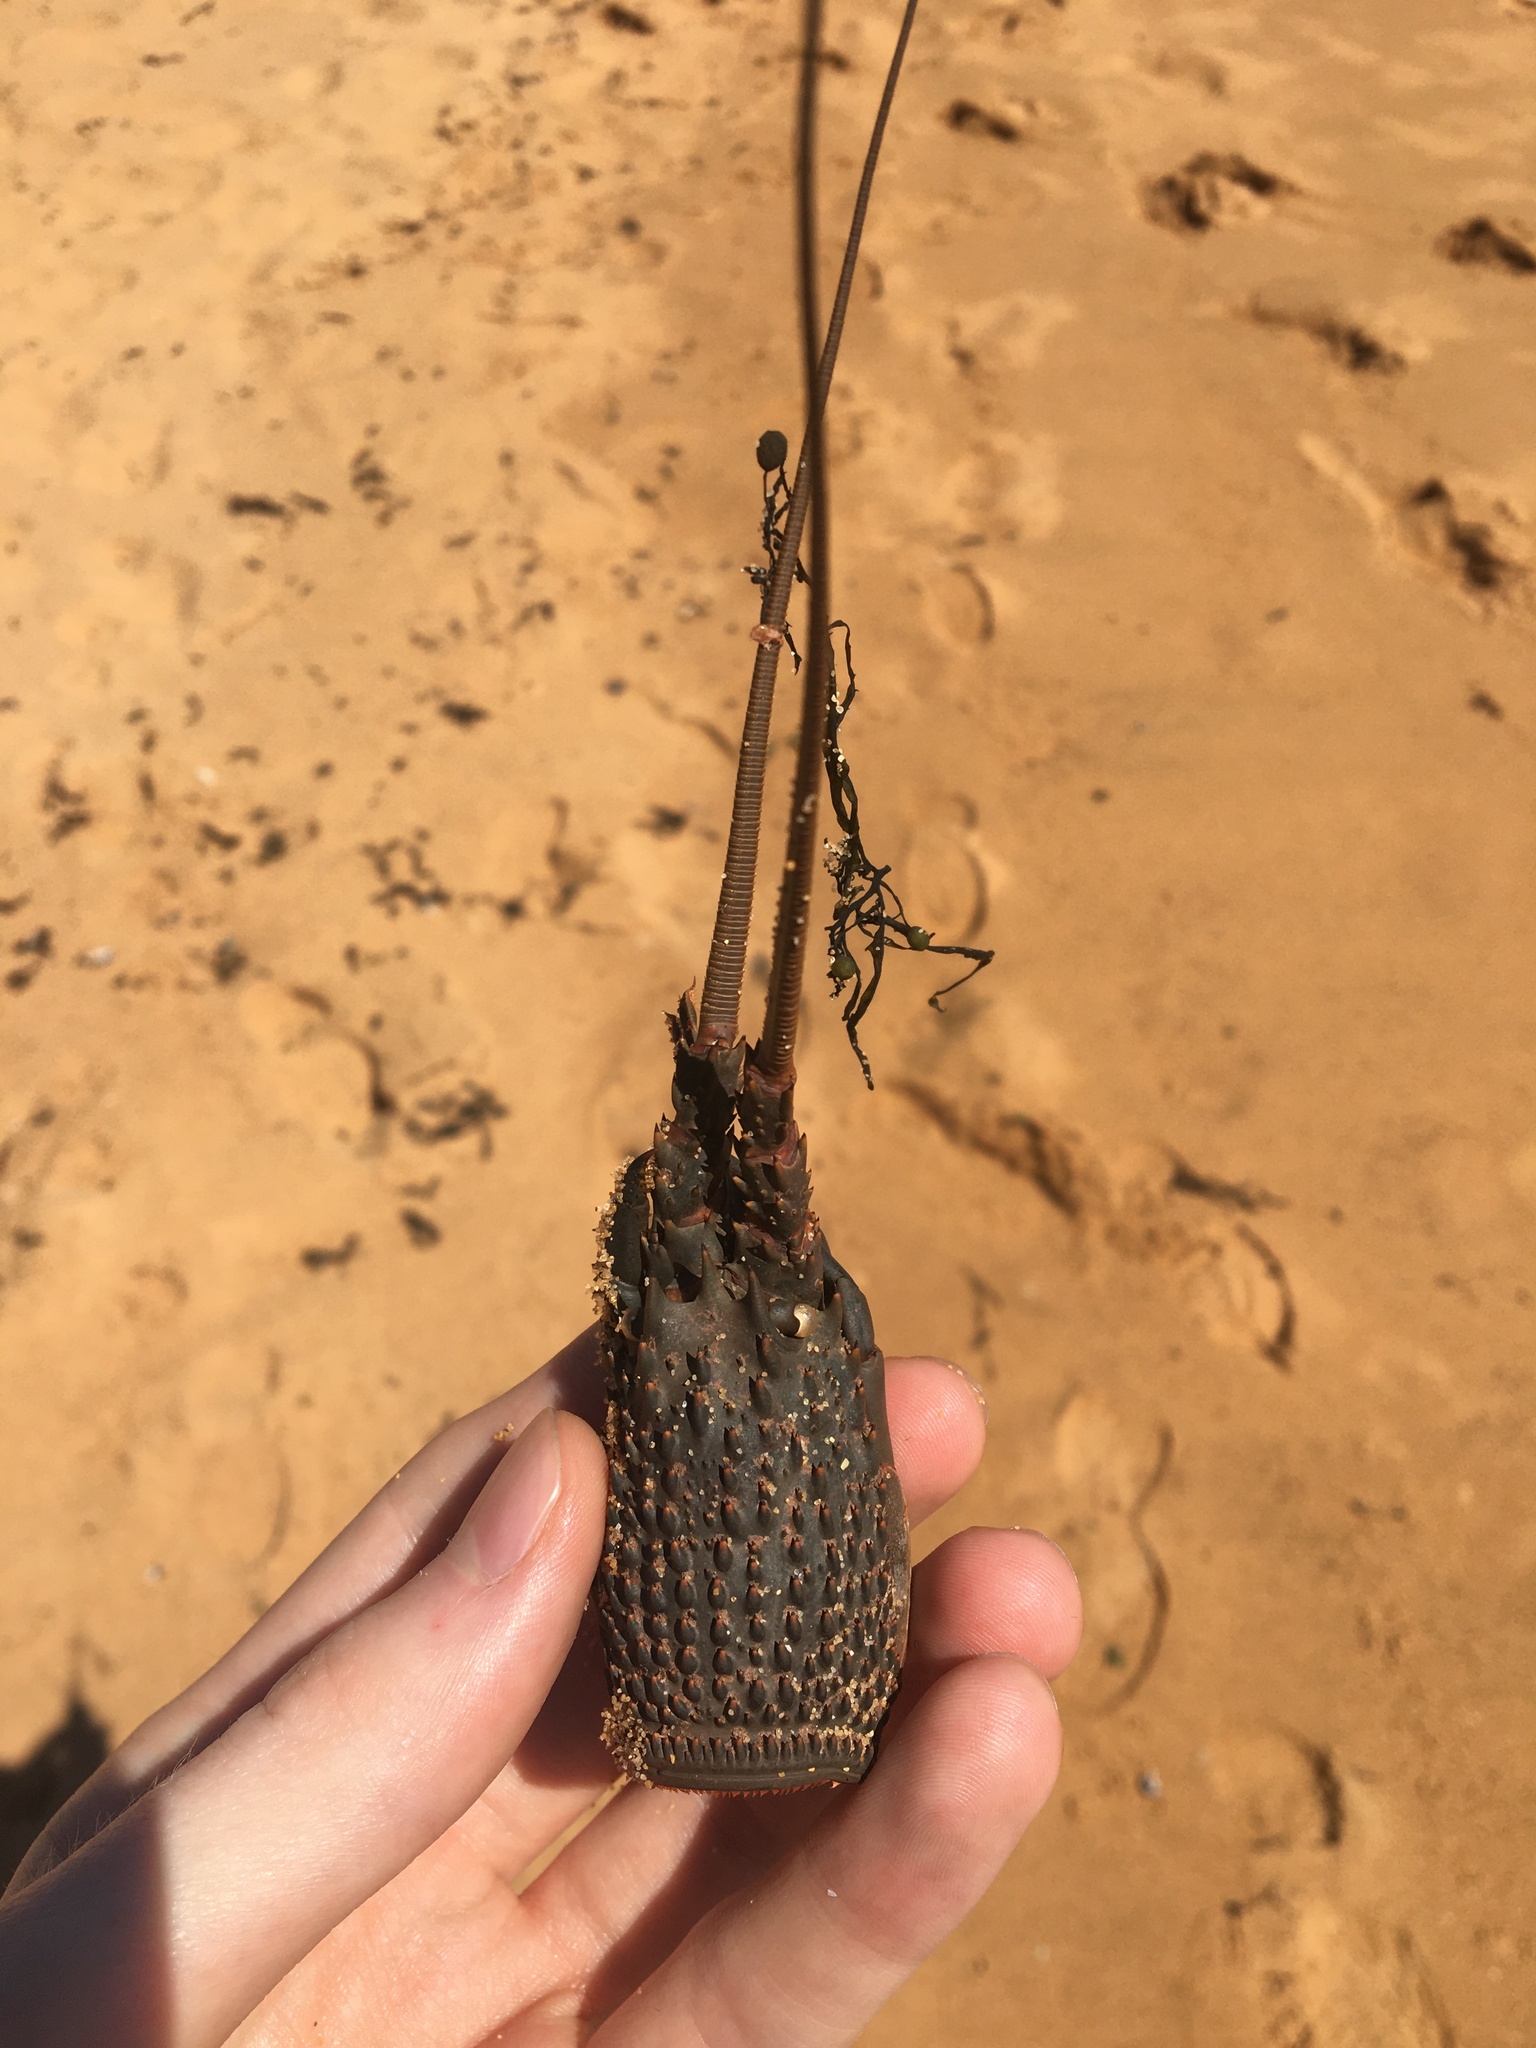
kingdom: Animalia
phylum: Arthropoda
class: Malacostraca
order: Decapoda
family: Palinuridae
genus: Sagmariasus
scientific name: Sagmariasus verreauxi
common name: Green rock lobster
